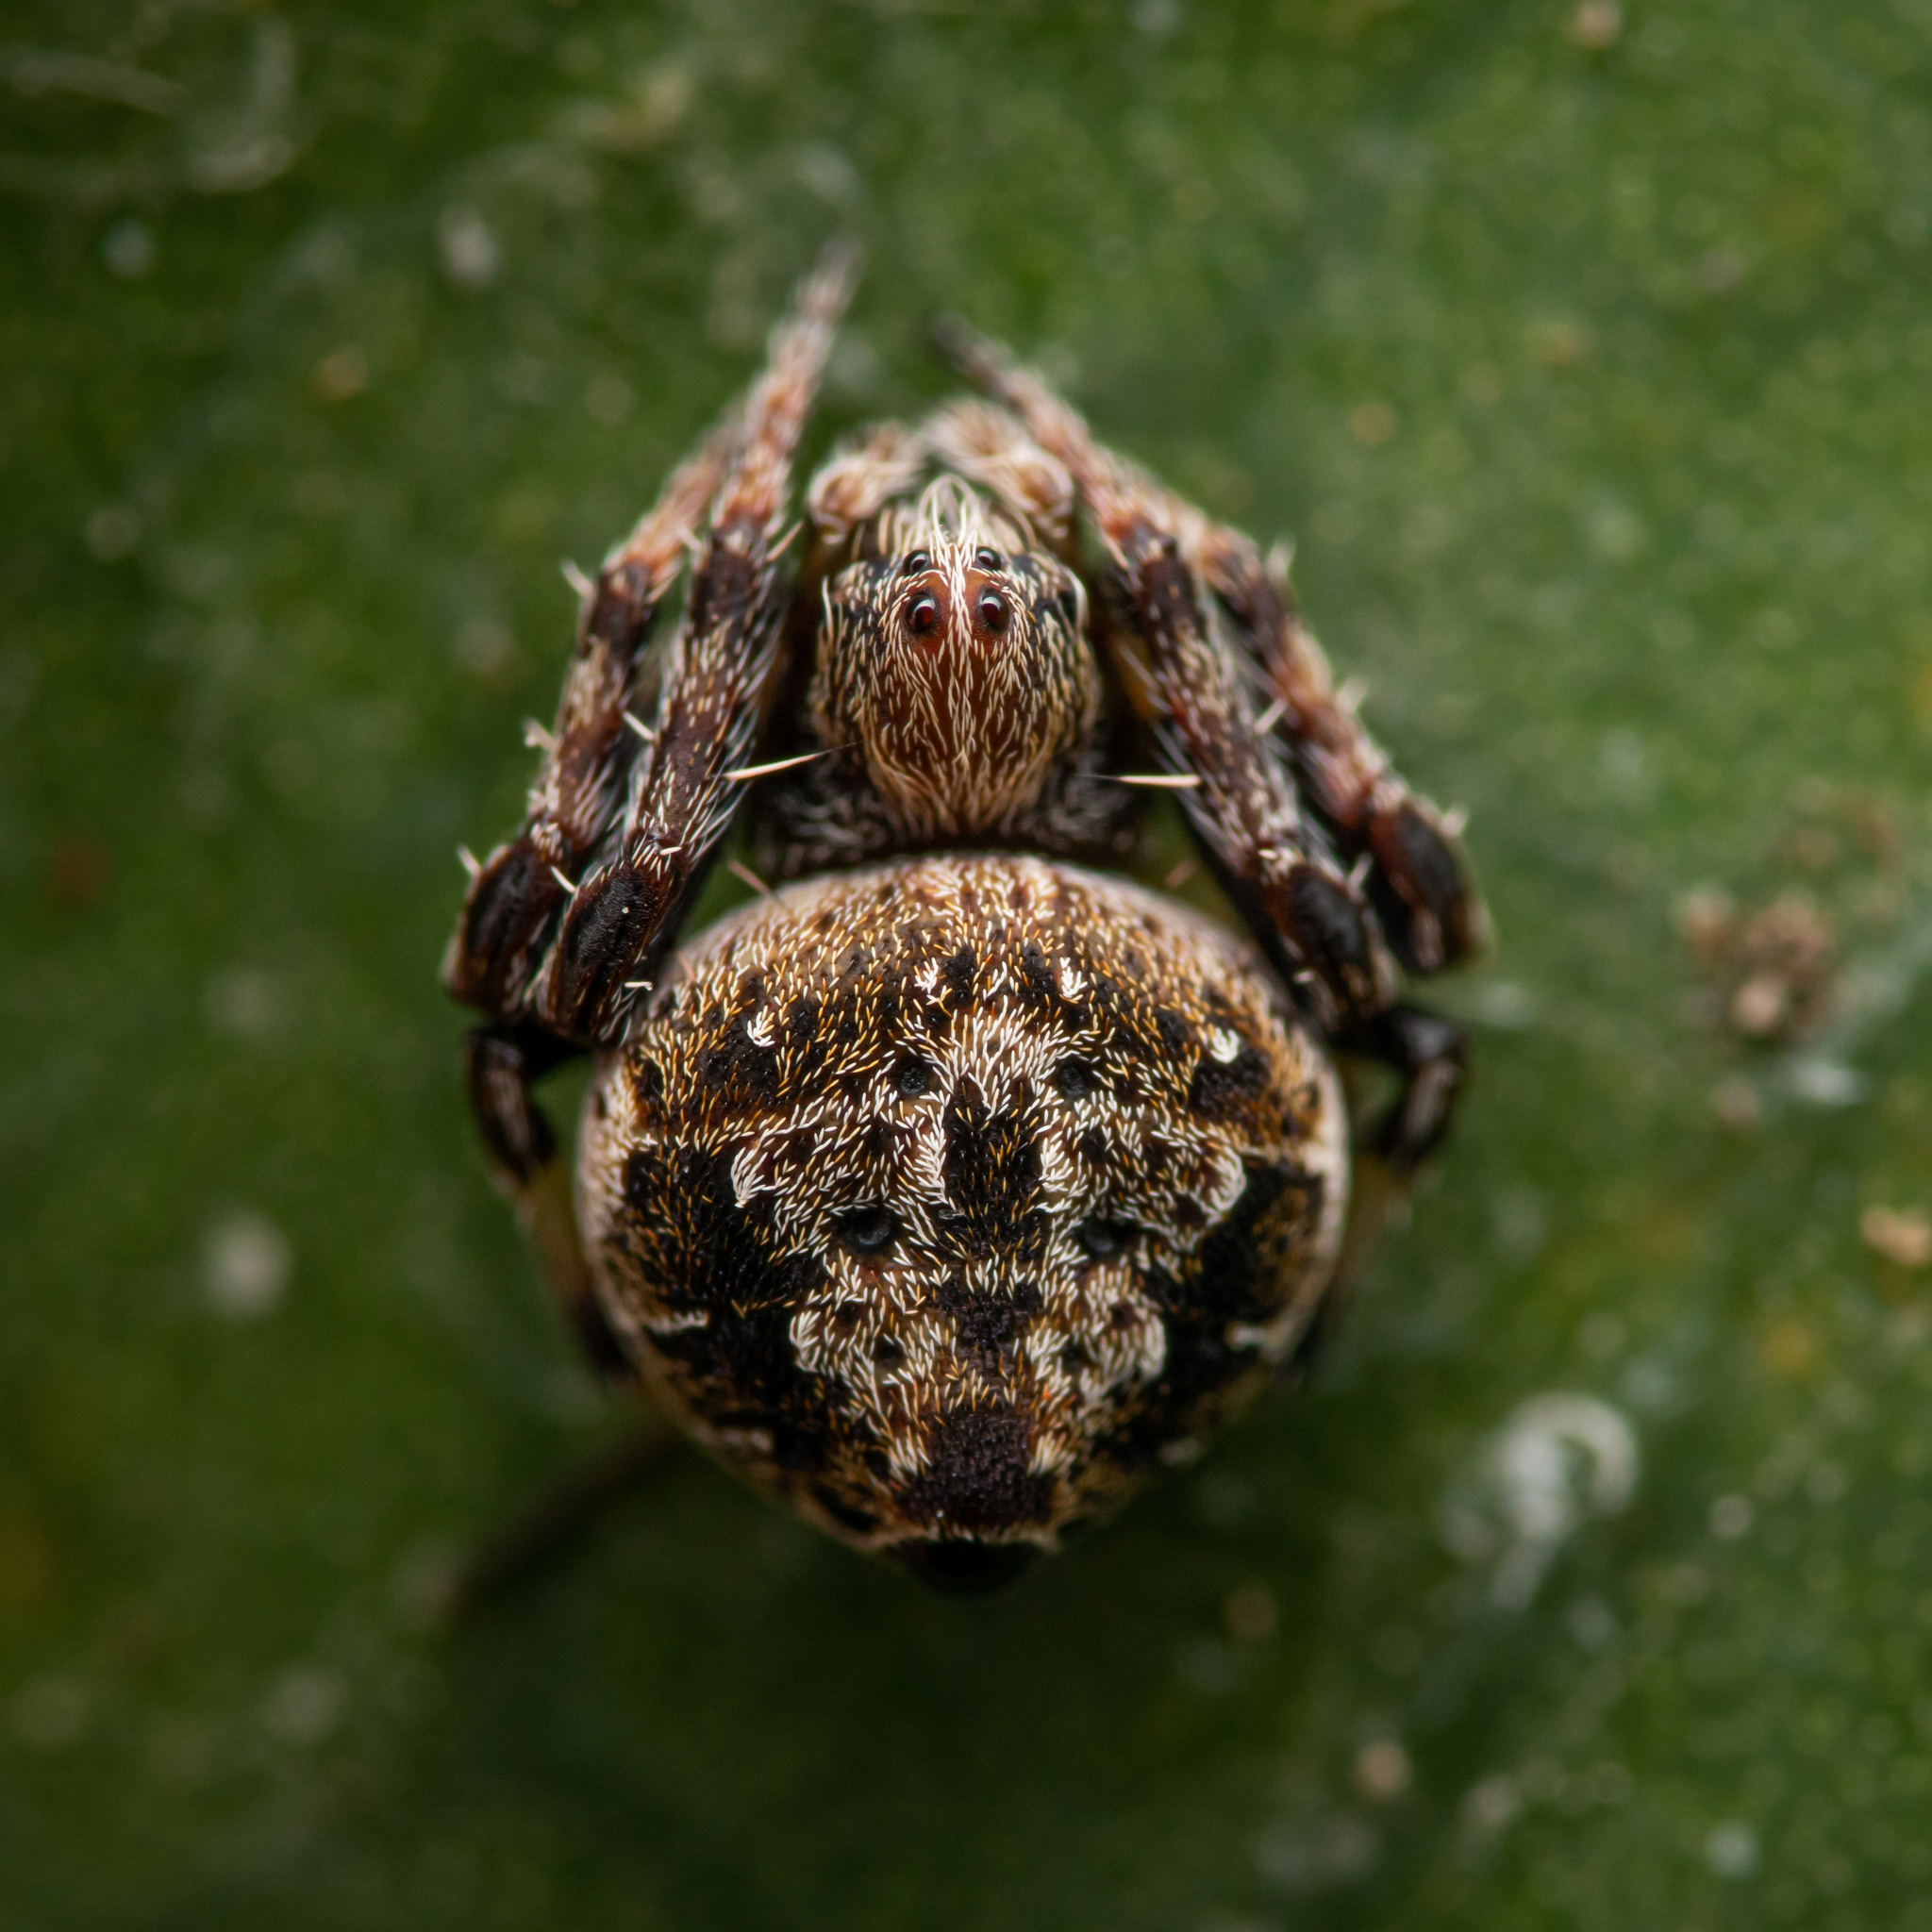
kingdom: Animalia
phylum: Arthropoda
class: Arachnida
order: Araneae
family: Araneidae
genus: Eriovixia
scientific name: Eriovixia excelsa
